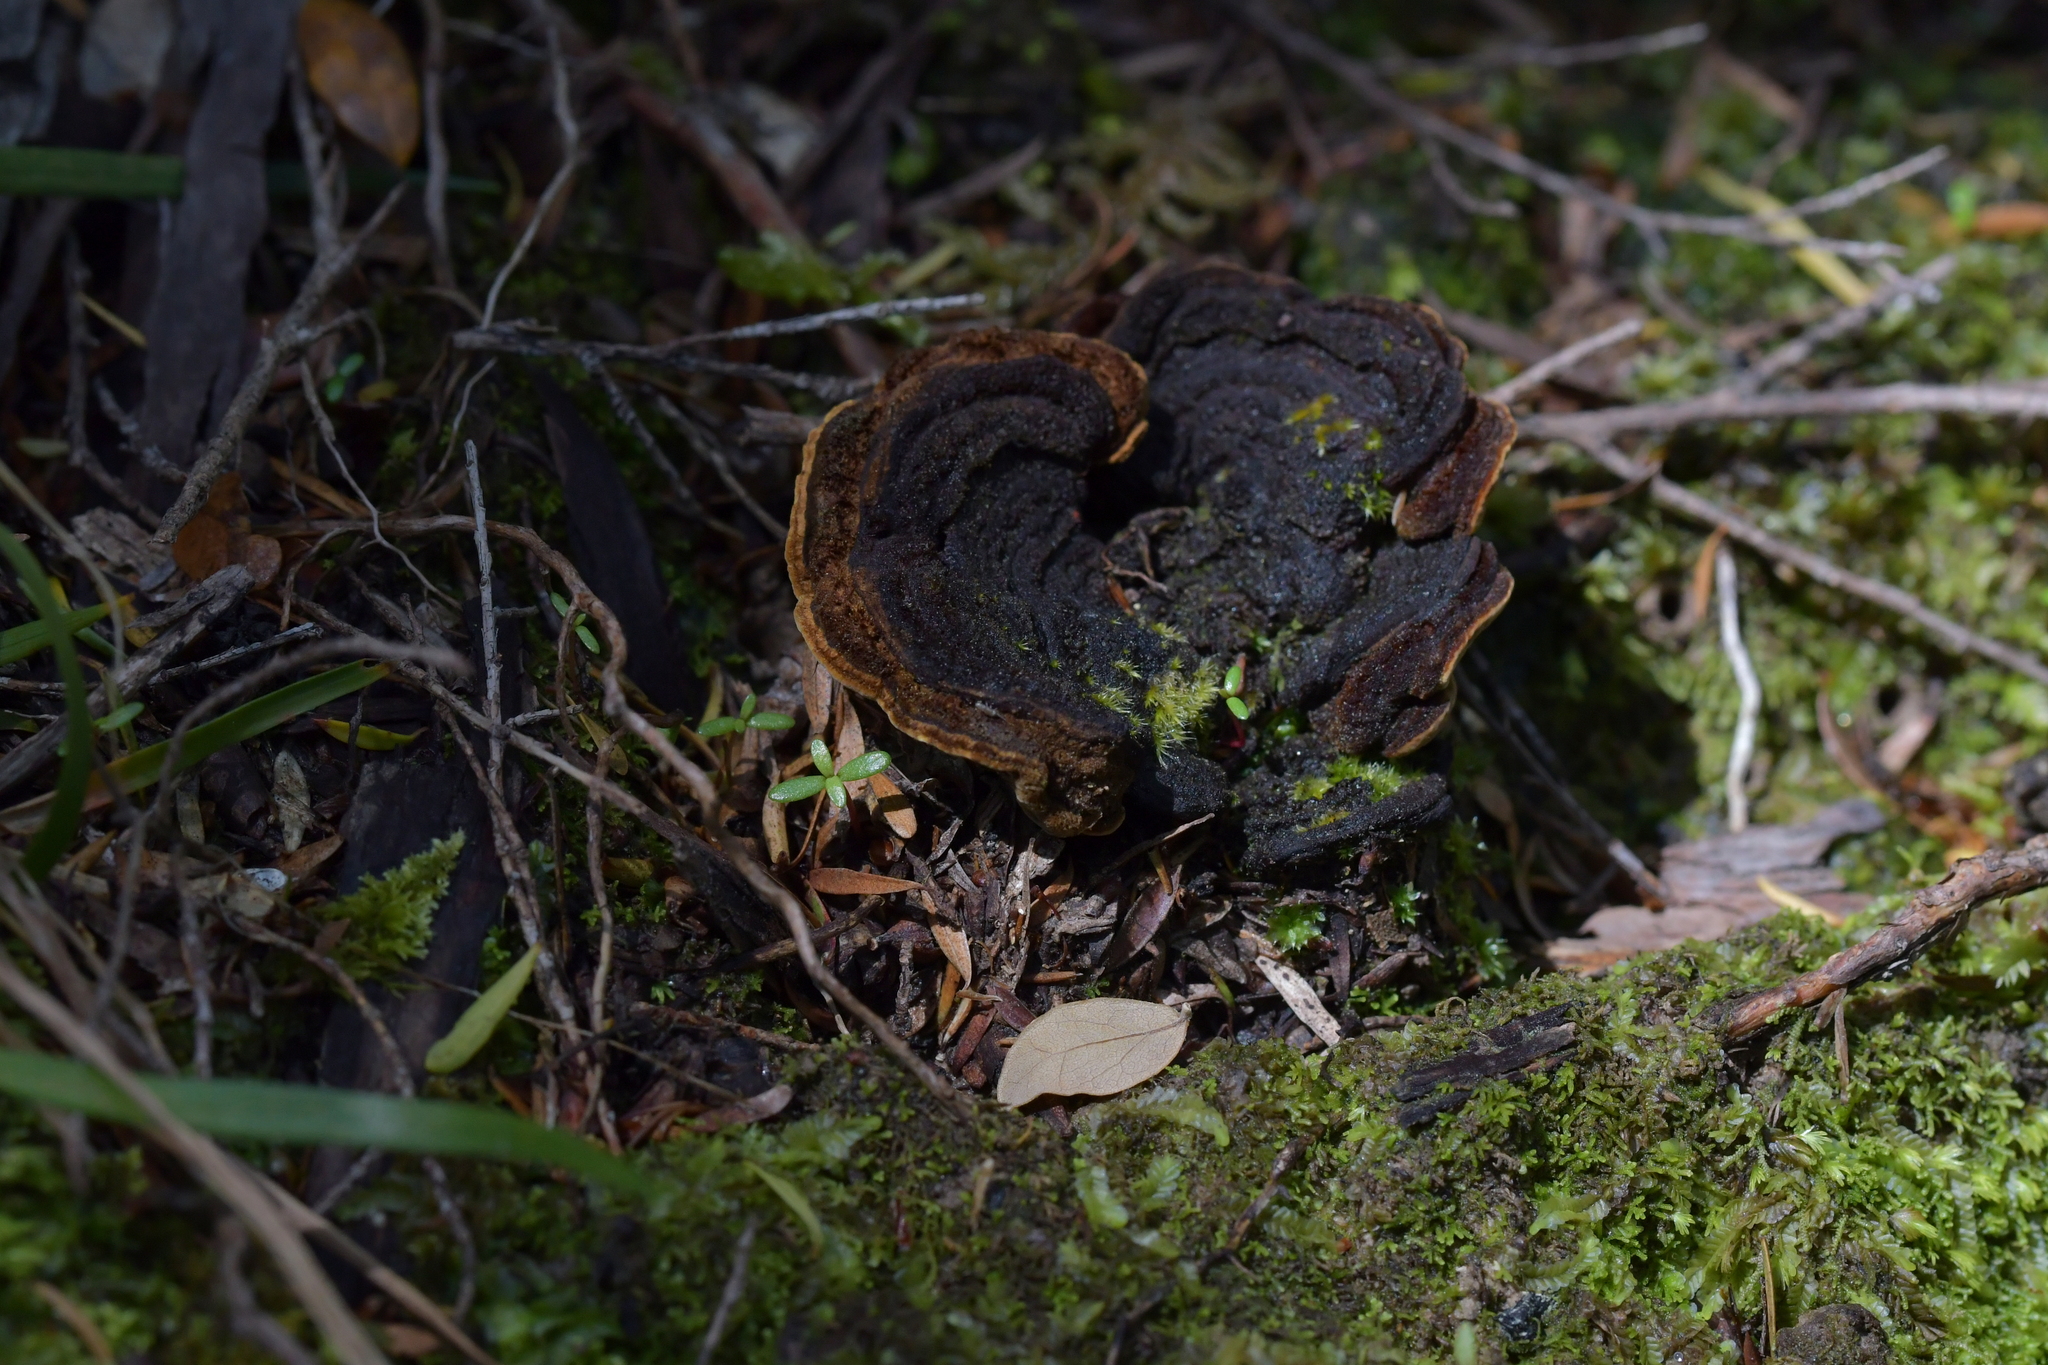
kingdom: Fungi
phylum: Basidiomycota
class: Agaricomycetes
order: Russulales
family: Stereaceae
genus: Stereum
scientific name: Stereum versicolor
